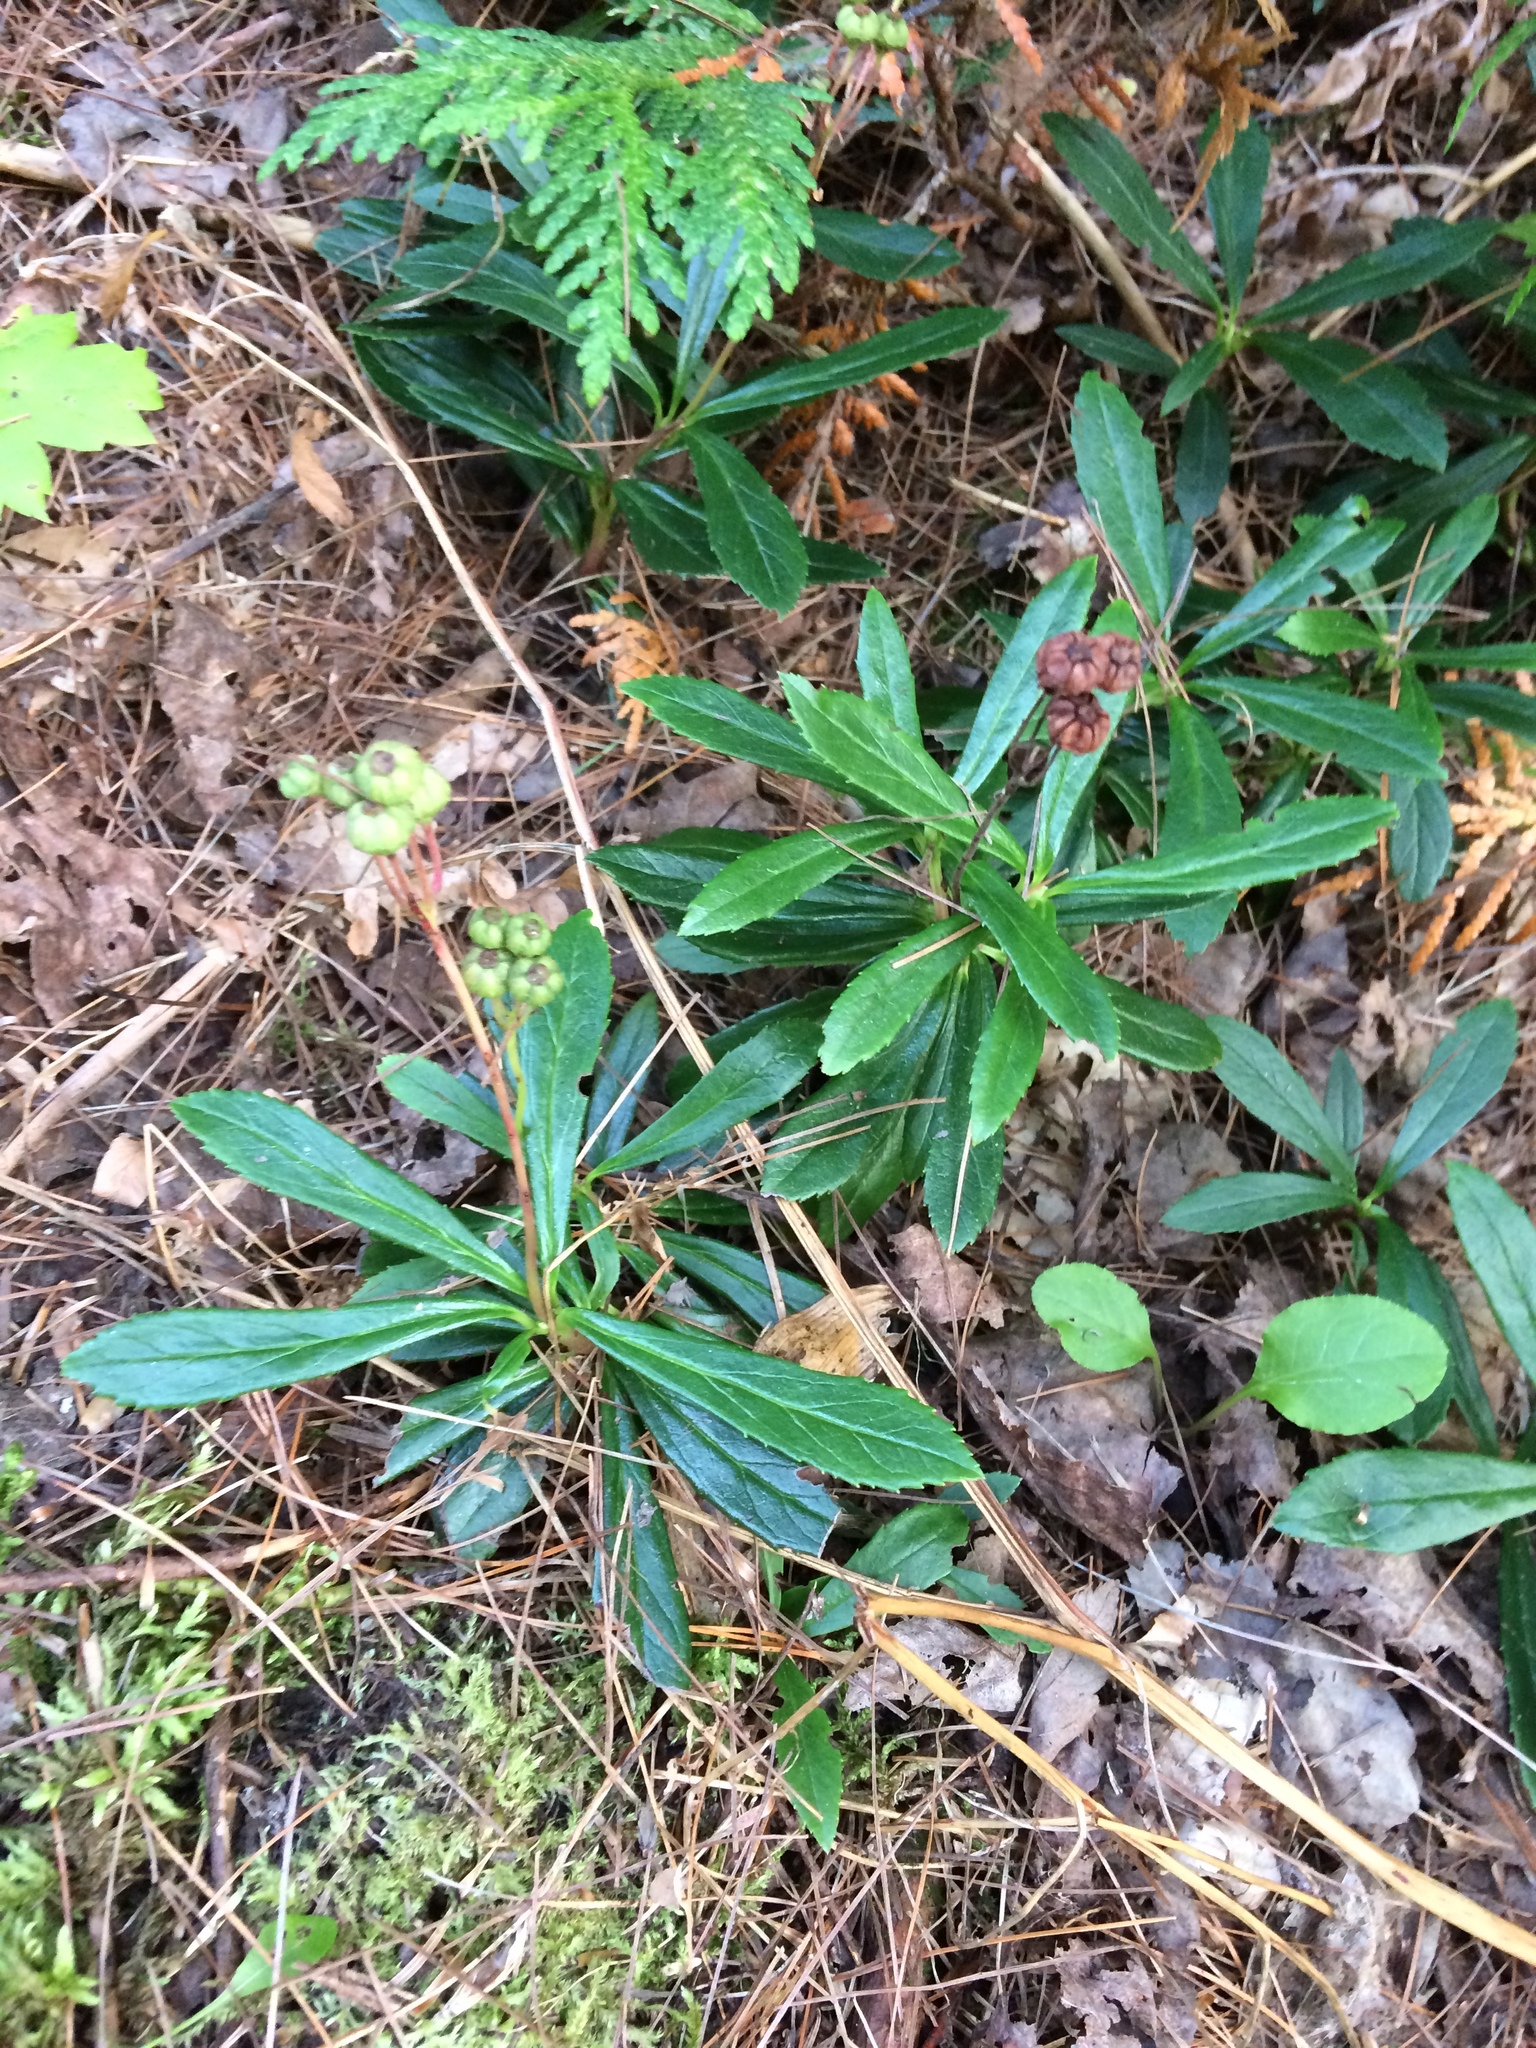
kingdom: Plantae
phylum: Tracheophyta
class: Magnoliopsida
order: Ericales
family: Ericaceae
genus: Chimaphila
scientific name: Chimaphila umbellata
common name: Pipsissewa
